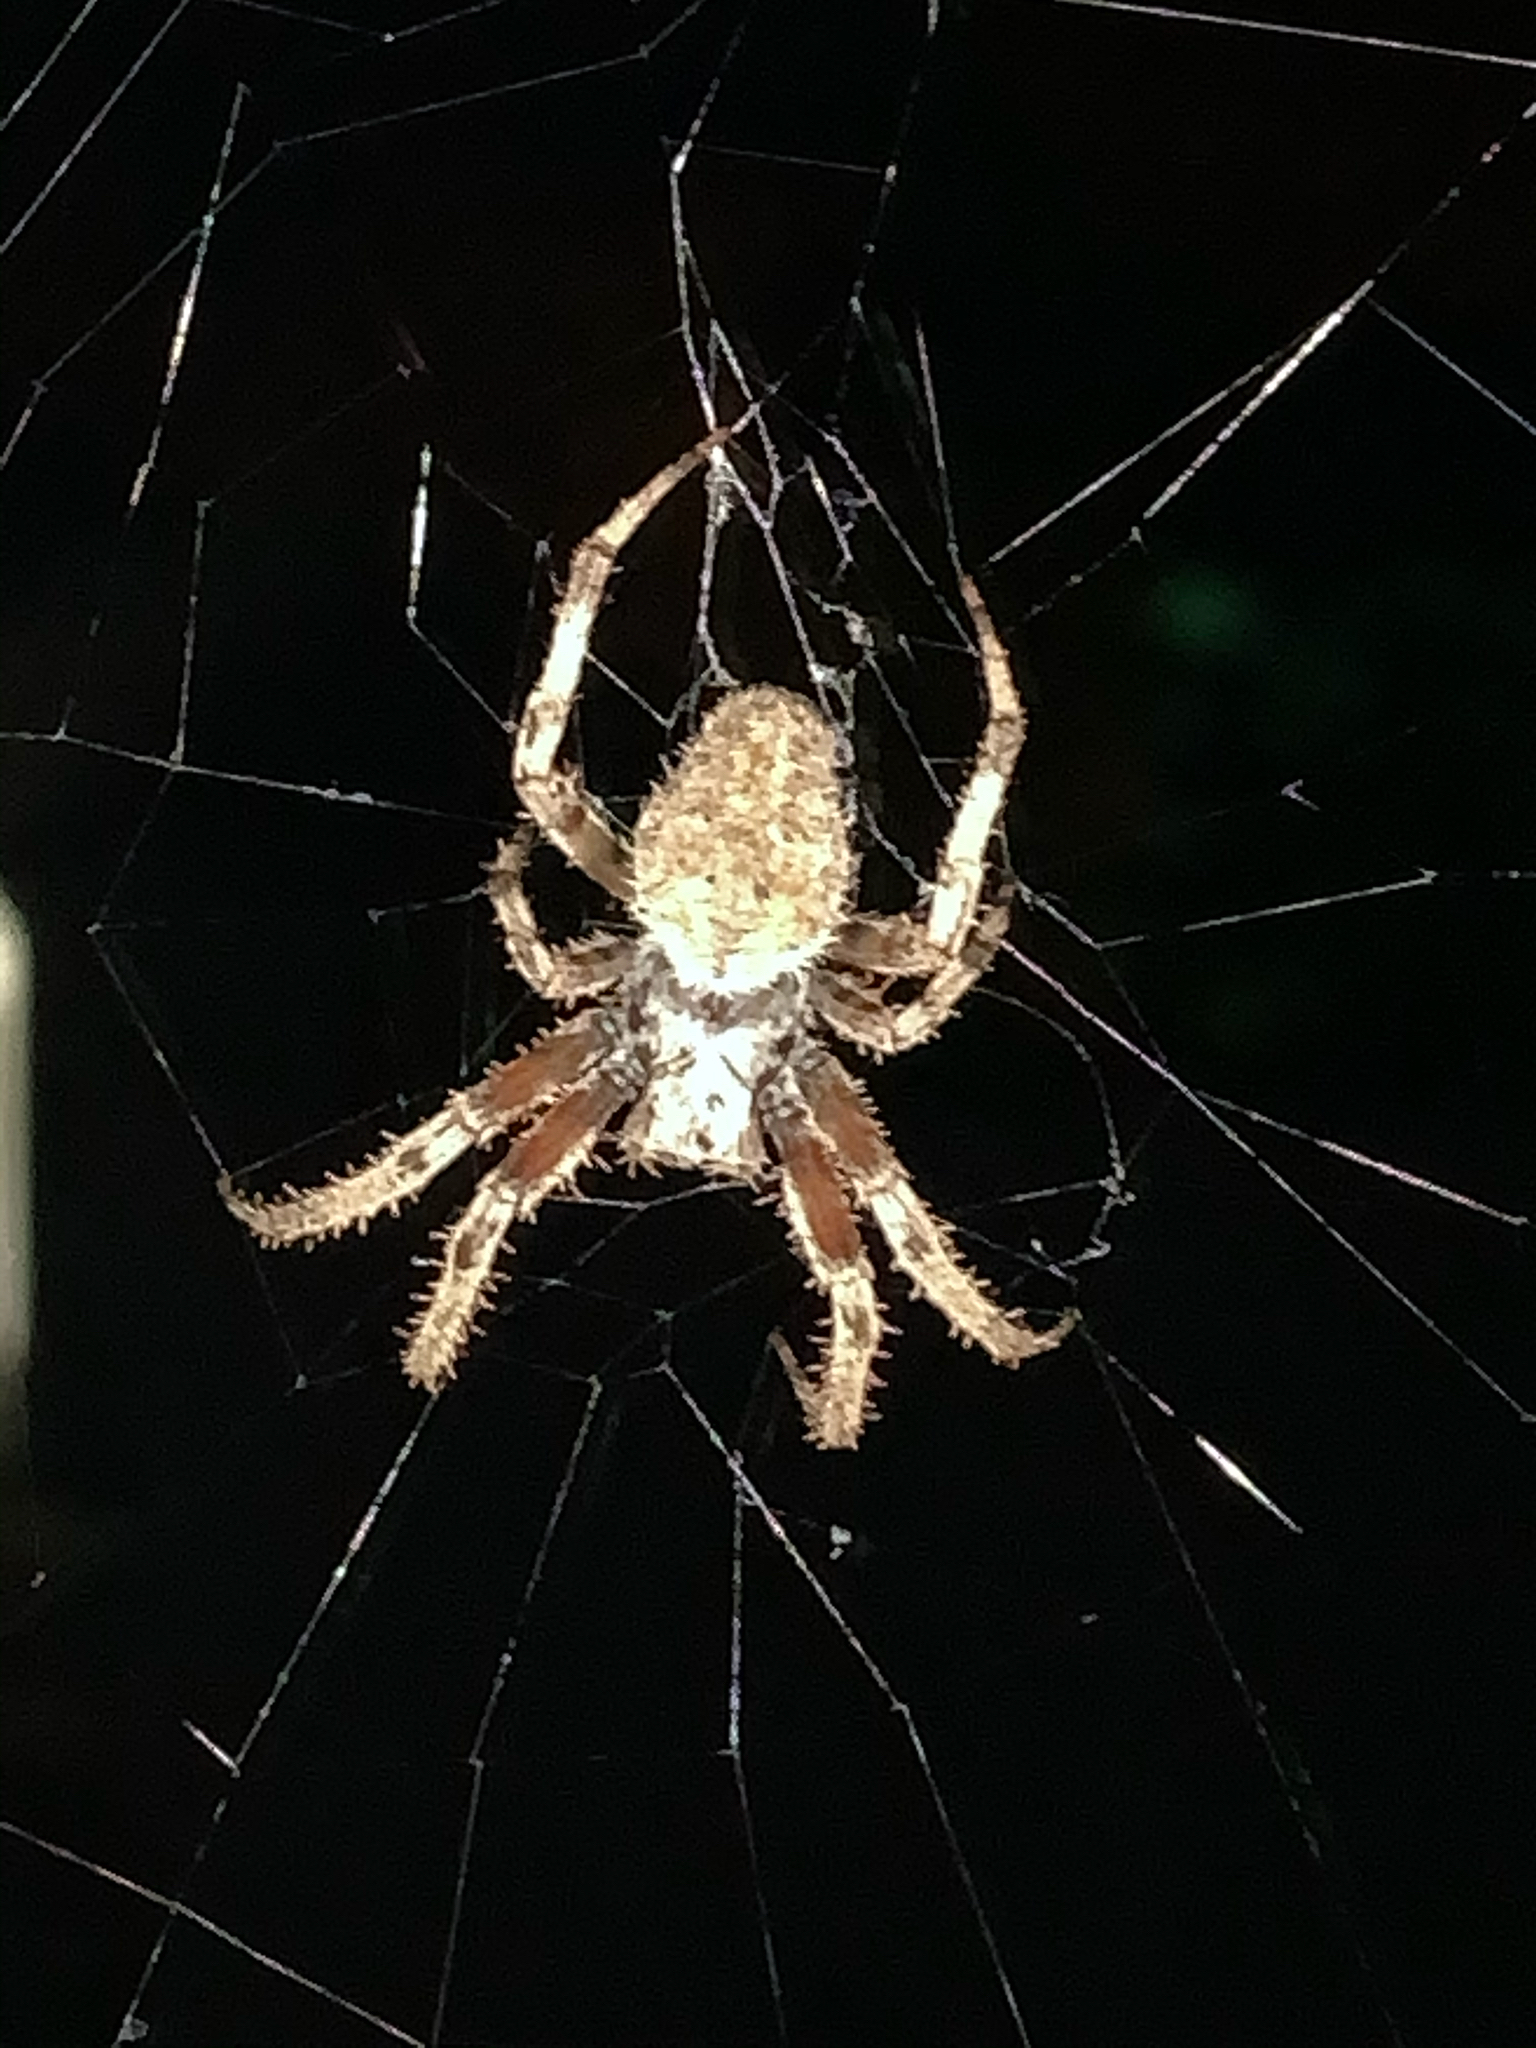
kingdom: Animalia
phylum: Arthropoda
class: Arachnida
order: Araneae
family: Araneidae
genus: Neoscona
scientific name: Neoscona crucifera
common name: Spotted orbweaver
